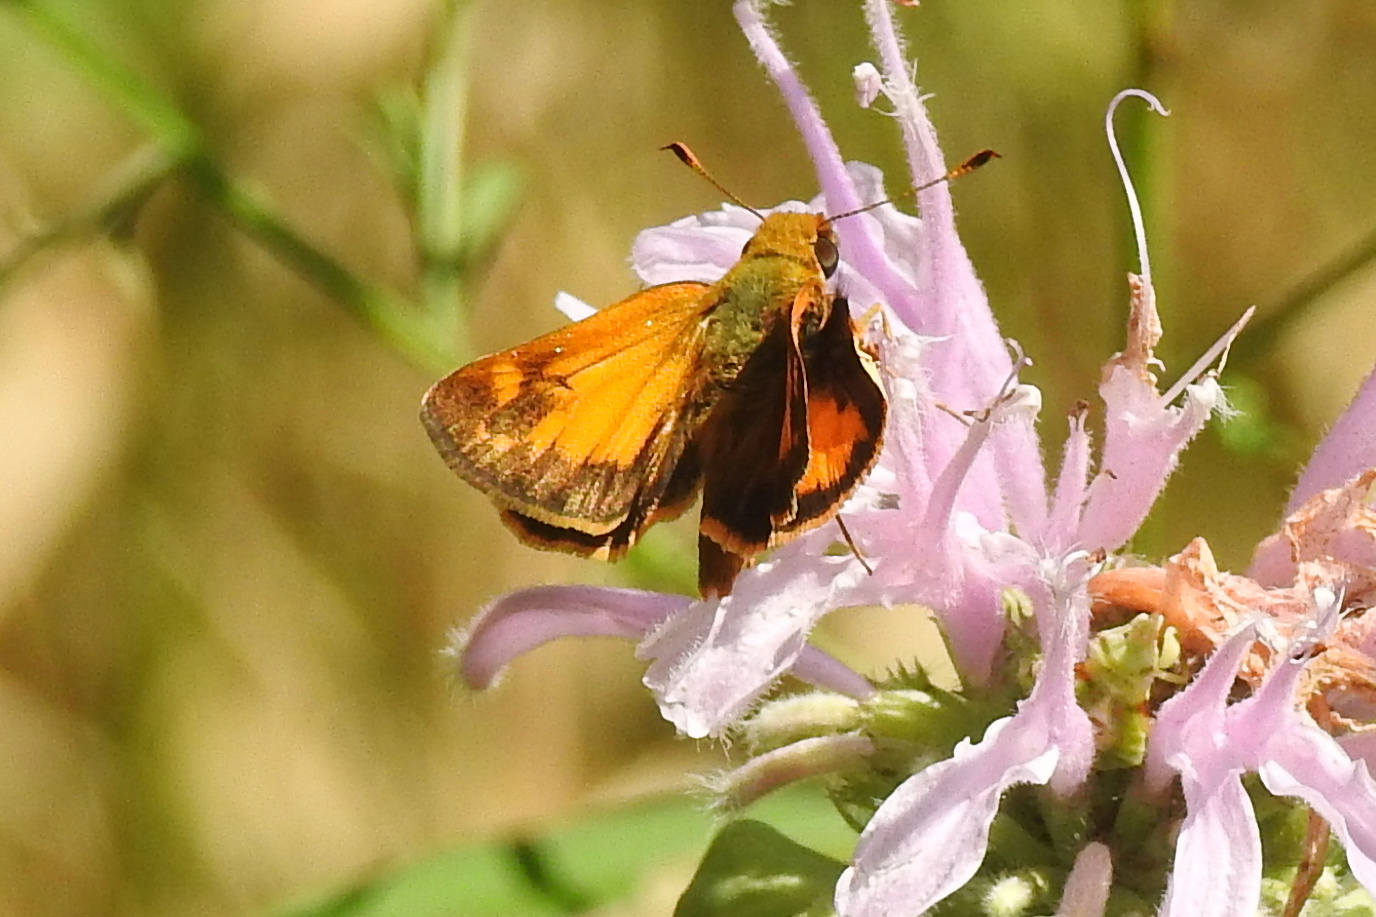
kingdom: Animalia
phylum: Arthropoda
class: Insecta
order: Lepidoptera
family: Hesperiidae
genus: Lon
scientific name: Lon zabulon
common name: Zabulon skipper
